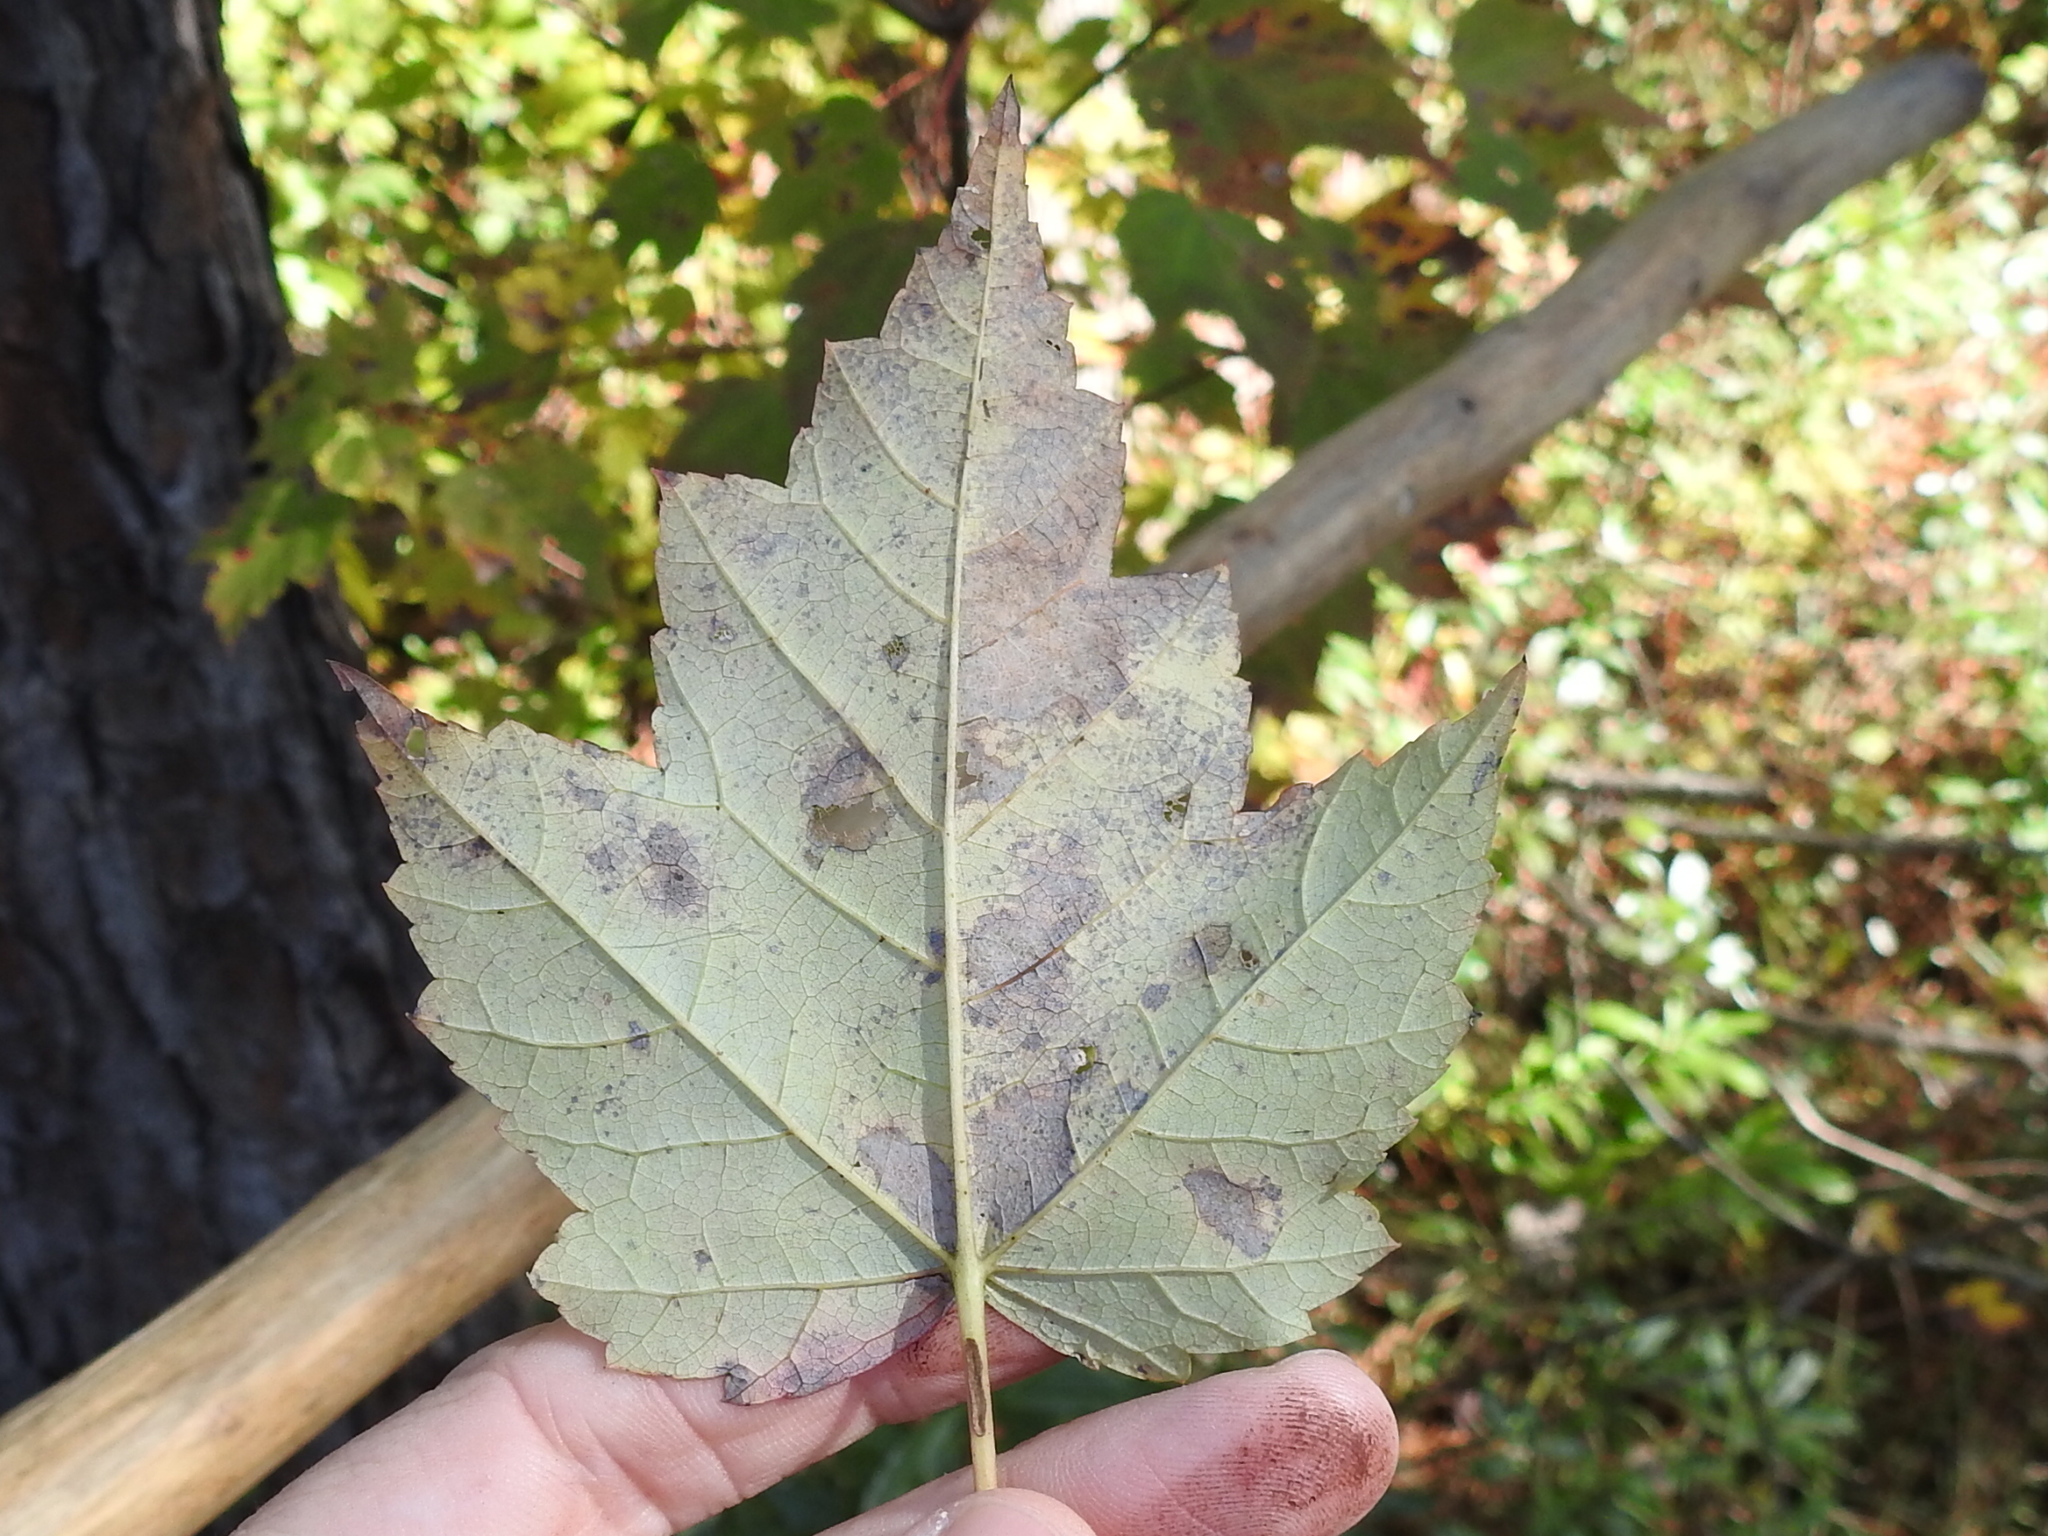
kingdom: Plantae
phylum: Tracheophyta
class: Magnoliopsida
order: Sapindales
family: Sapindaceae
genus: Acer
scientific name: Acer rubrum
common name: Red maple
